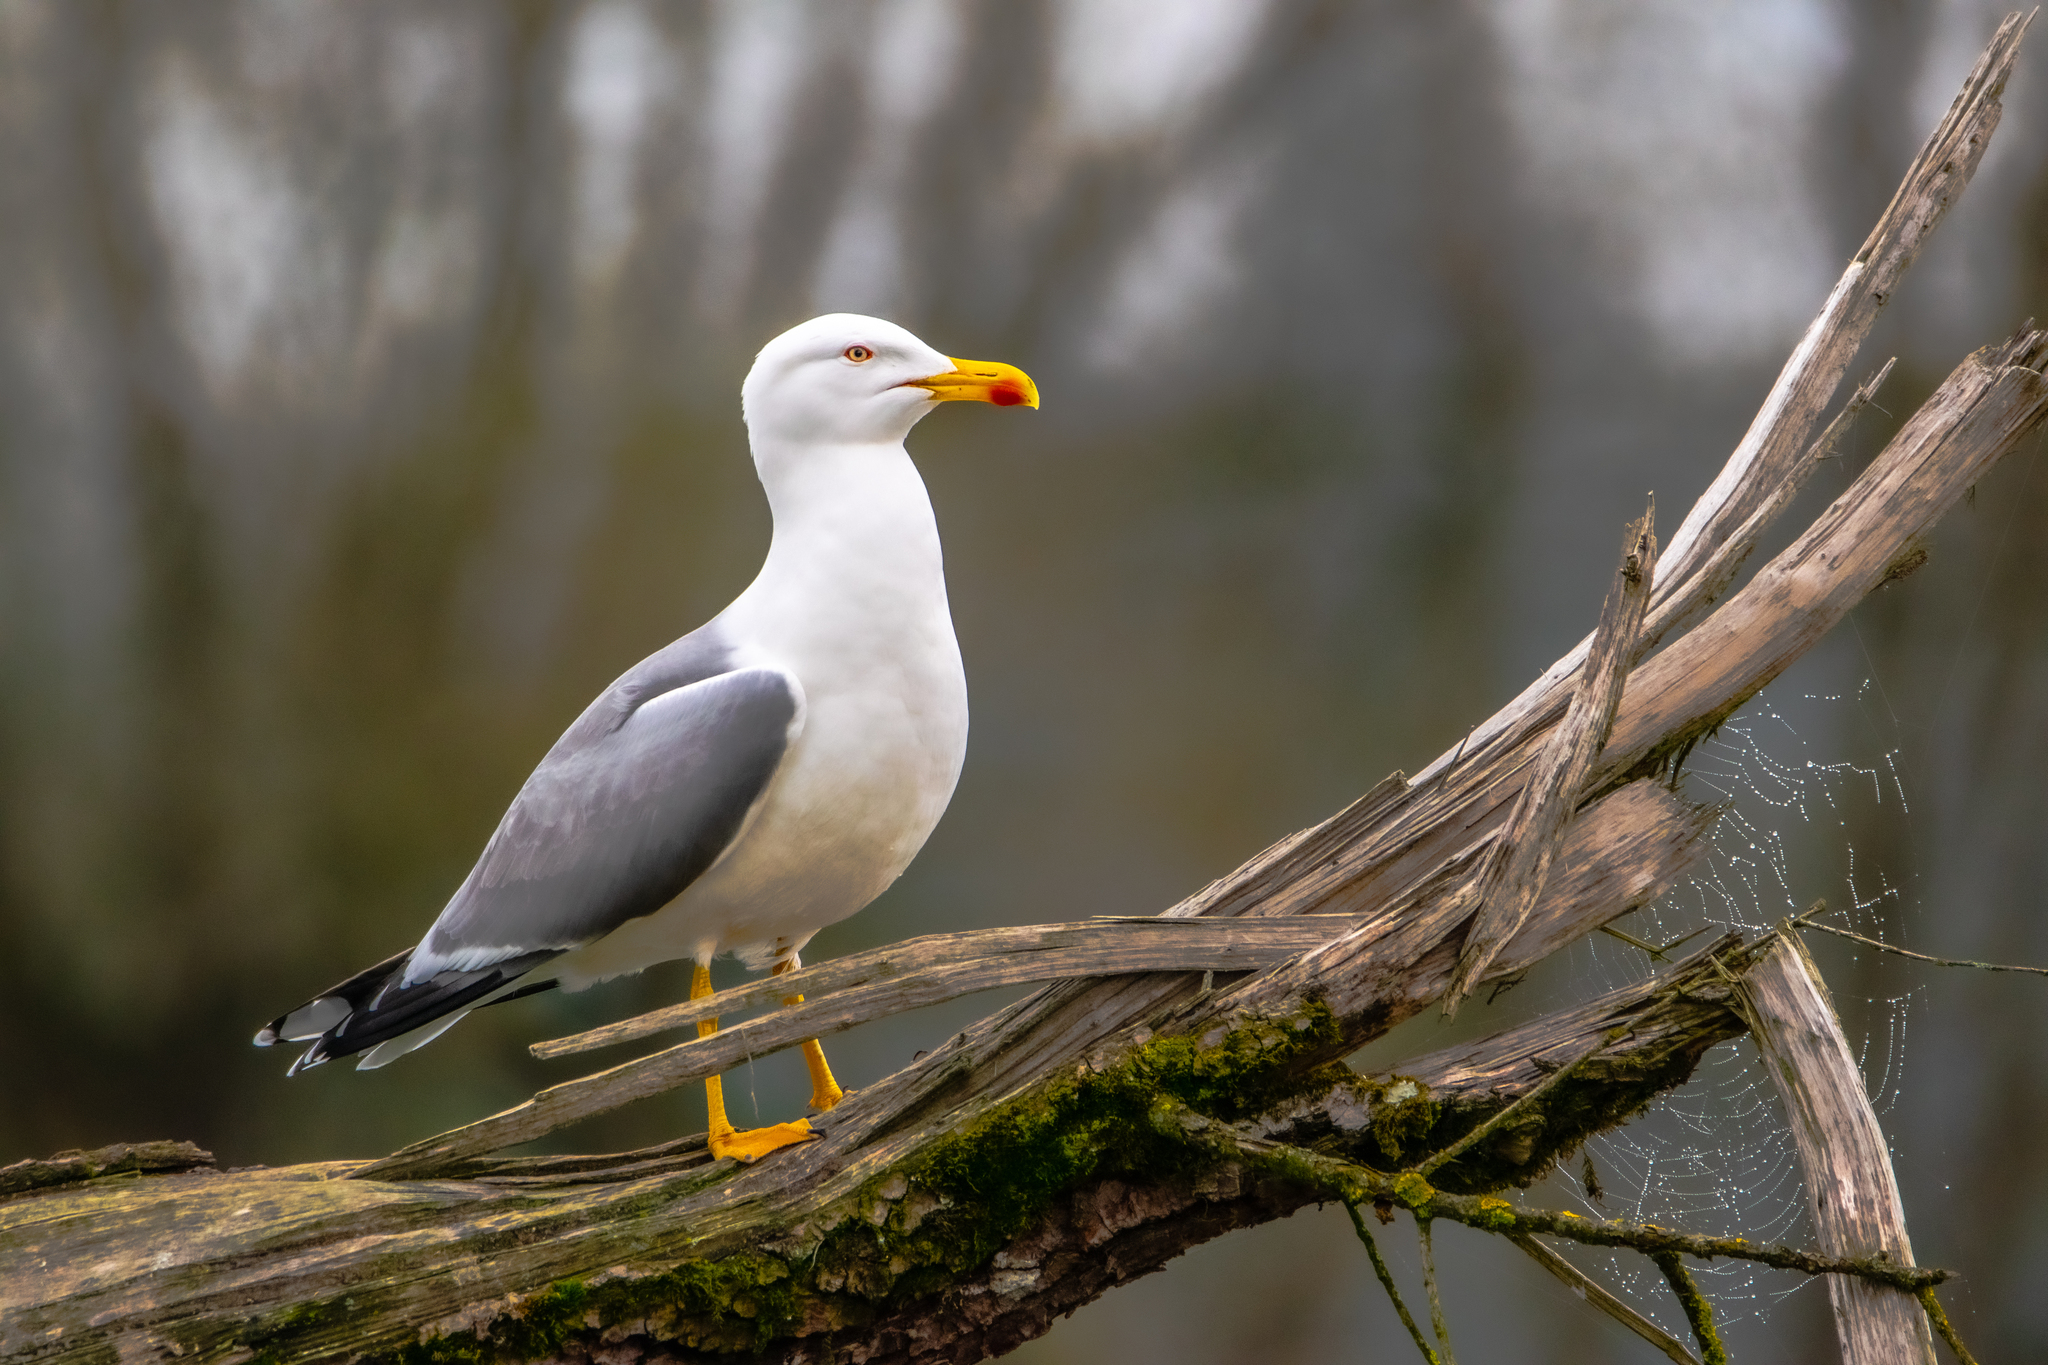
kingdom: Animalia
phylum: Chordata
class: Aves
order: Charadriiformes
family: Laridae
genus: Larus
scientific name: Larus michahellis
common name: Yellow-legged gull
